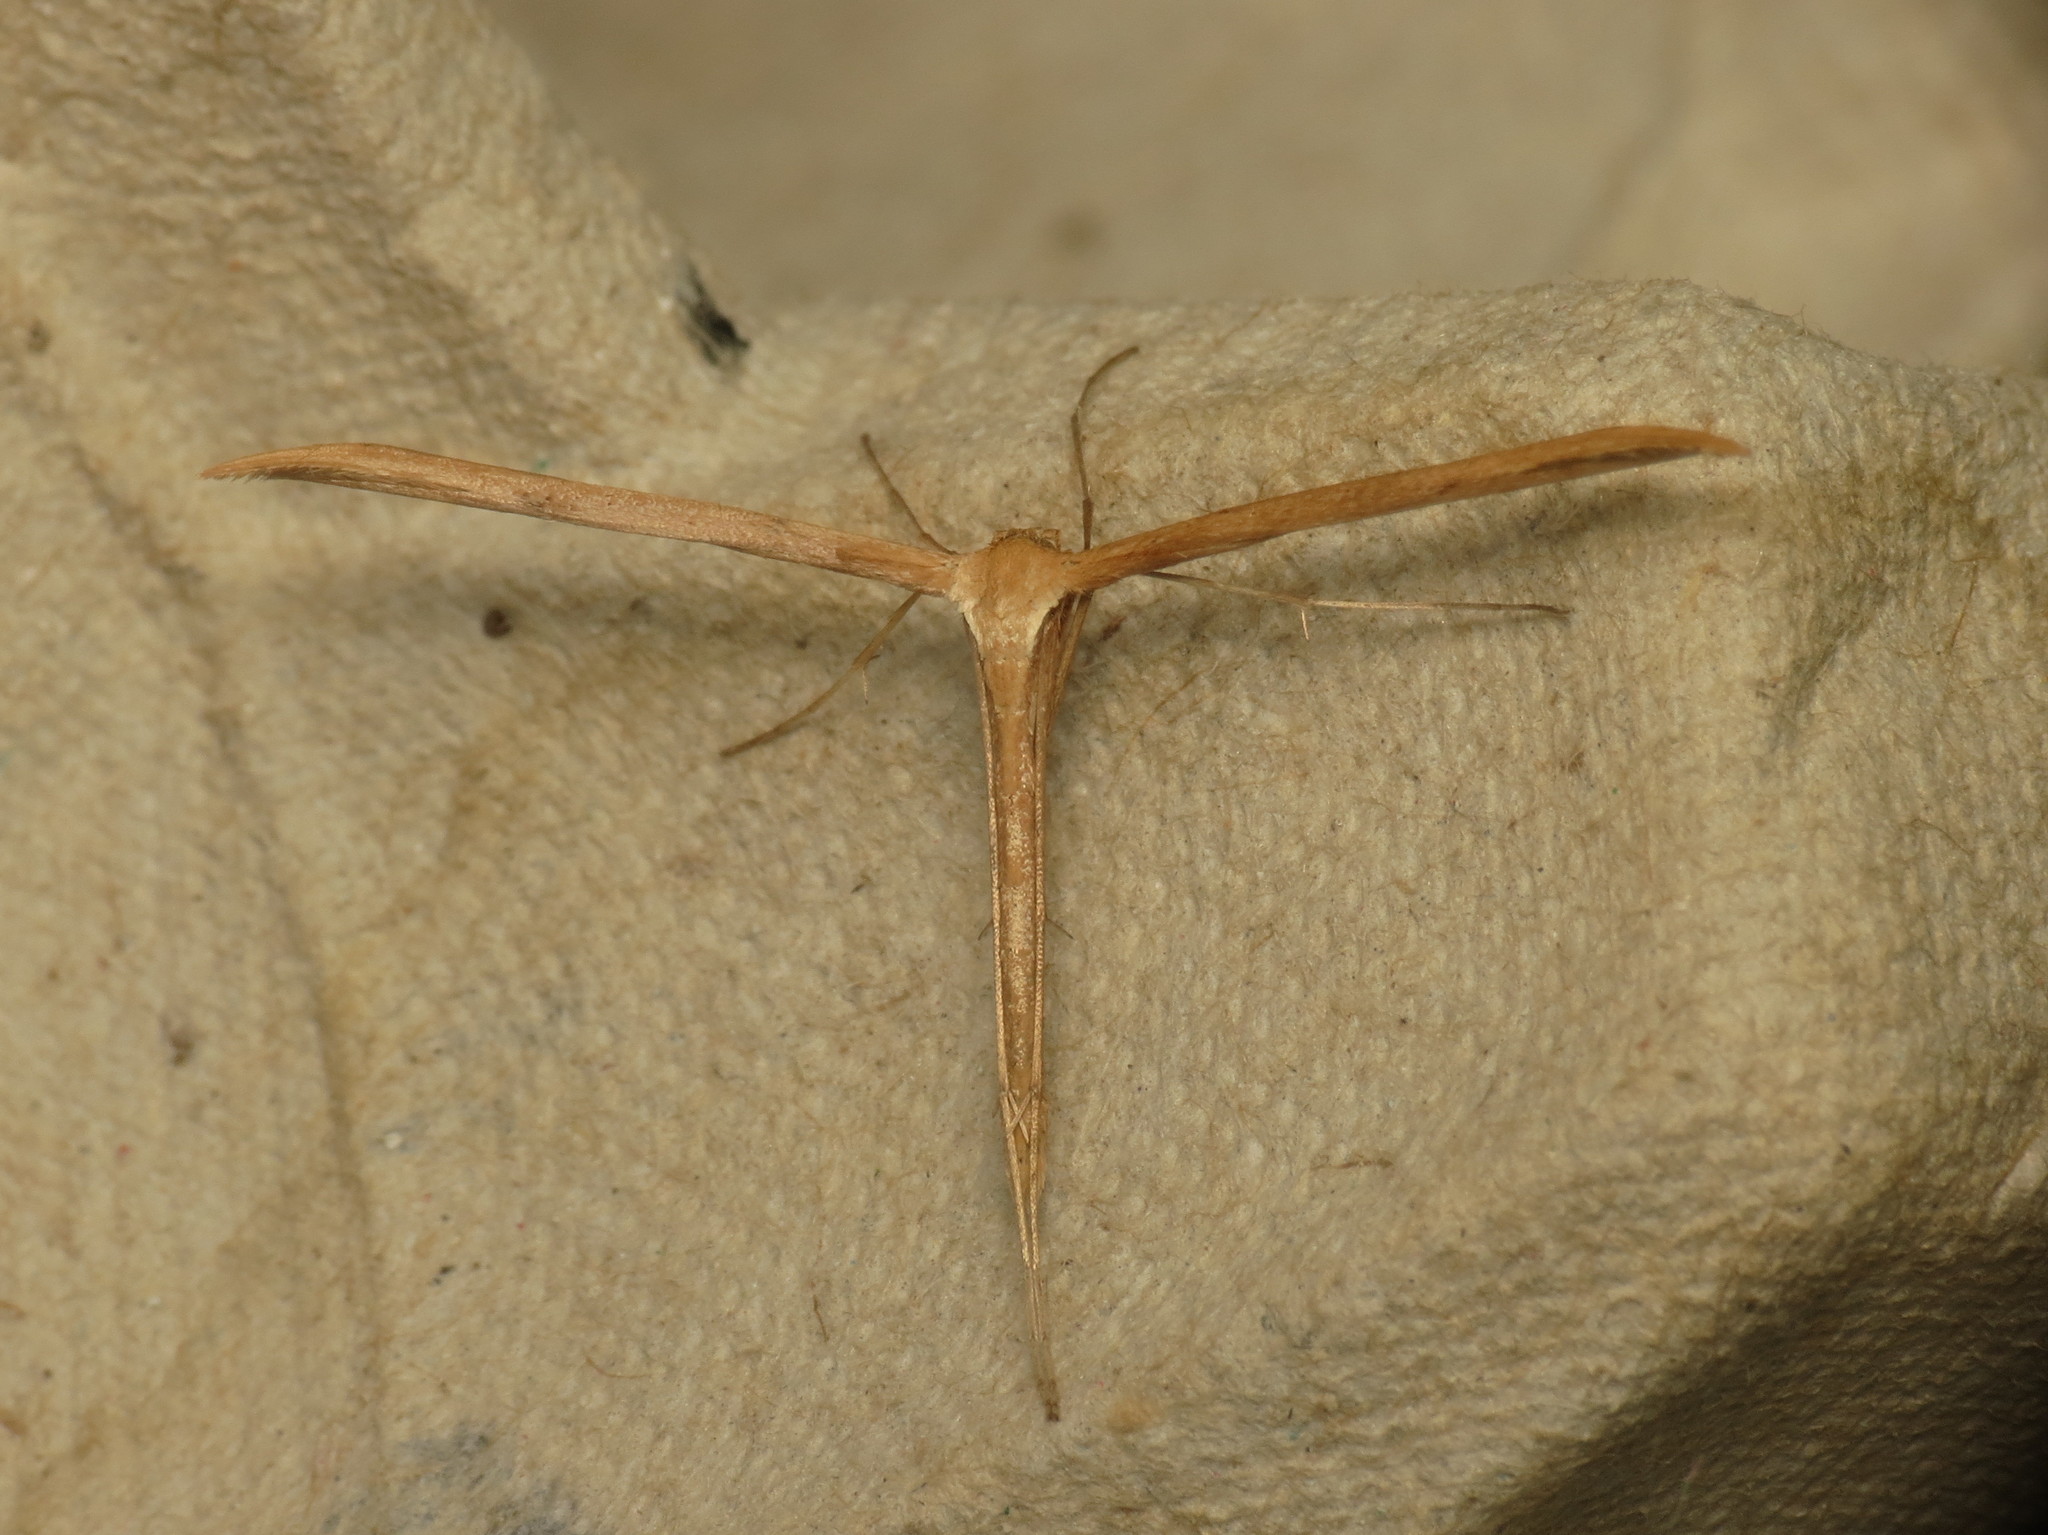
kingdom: Animalia
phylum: Arthropoda
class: Insecta
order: Lepidoptera
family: Pterophoridae
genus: Emmelina
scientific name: Emmelina monodactyla
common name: Common plume
